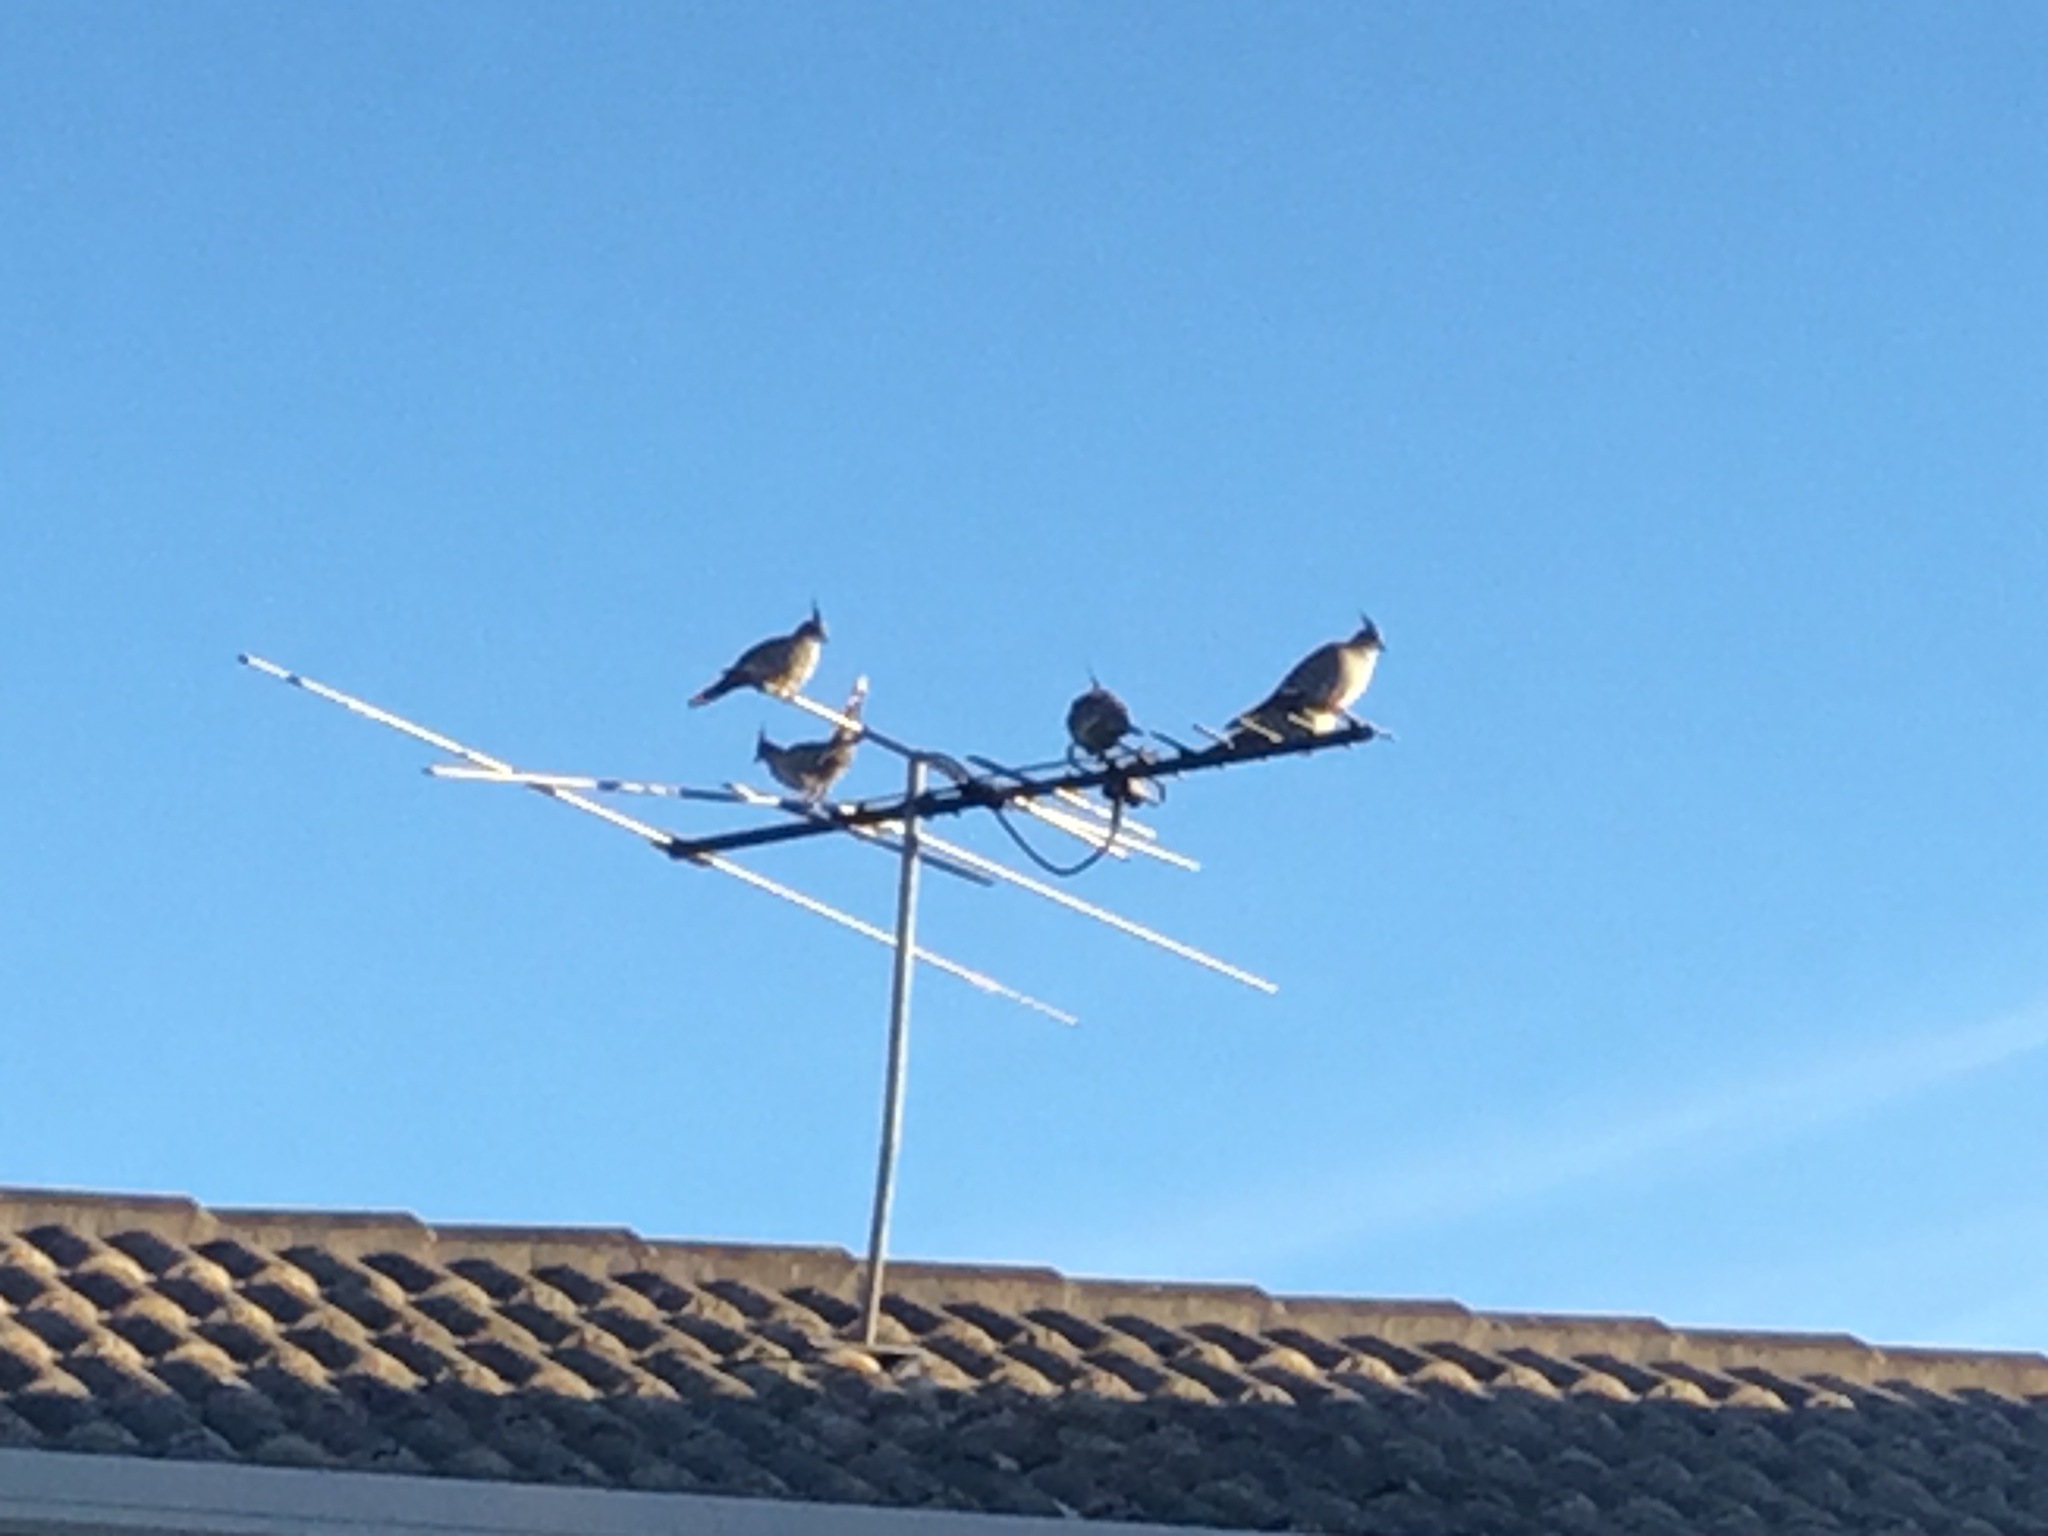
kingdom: Animalia
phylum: Chordata
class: Aves
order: Columbiformes
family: Columbidae
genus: Ocyphaps
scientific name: Ocyphaps lophotes
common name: Crested pigeon
